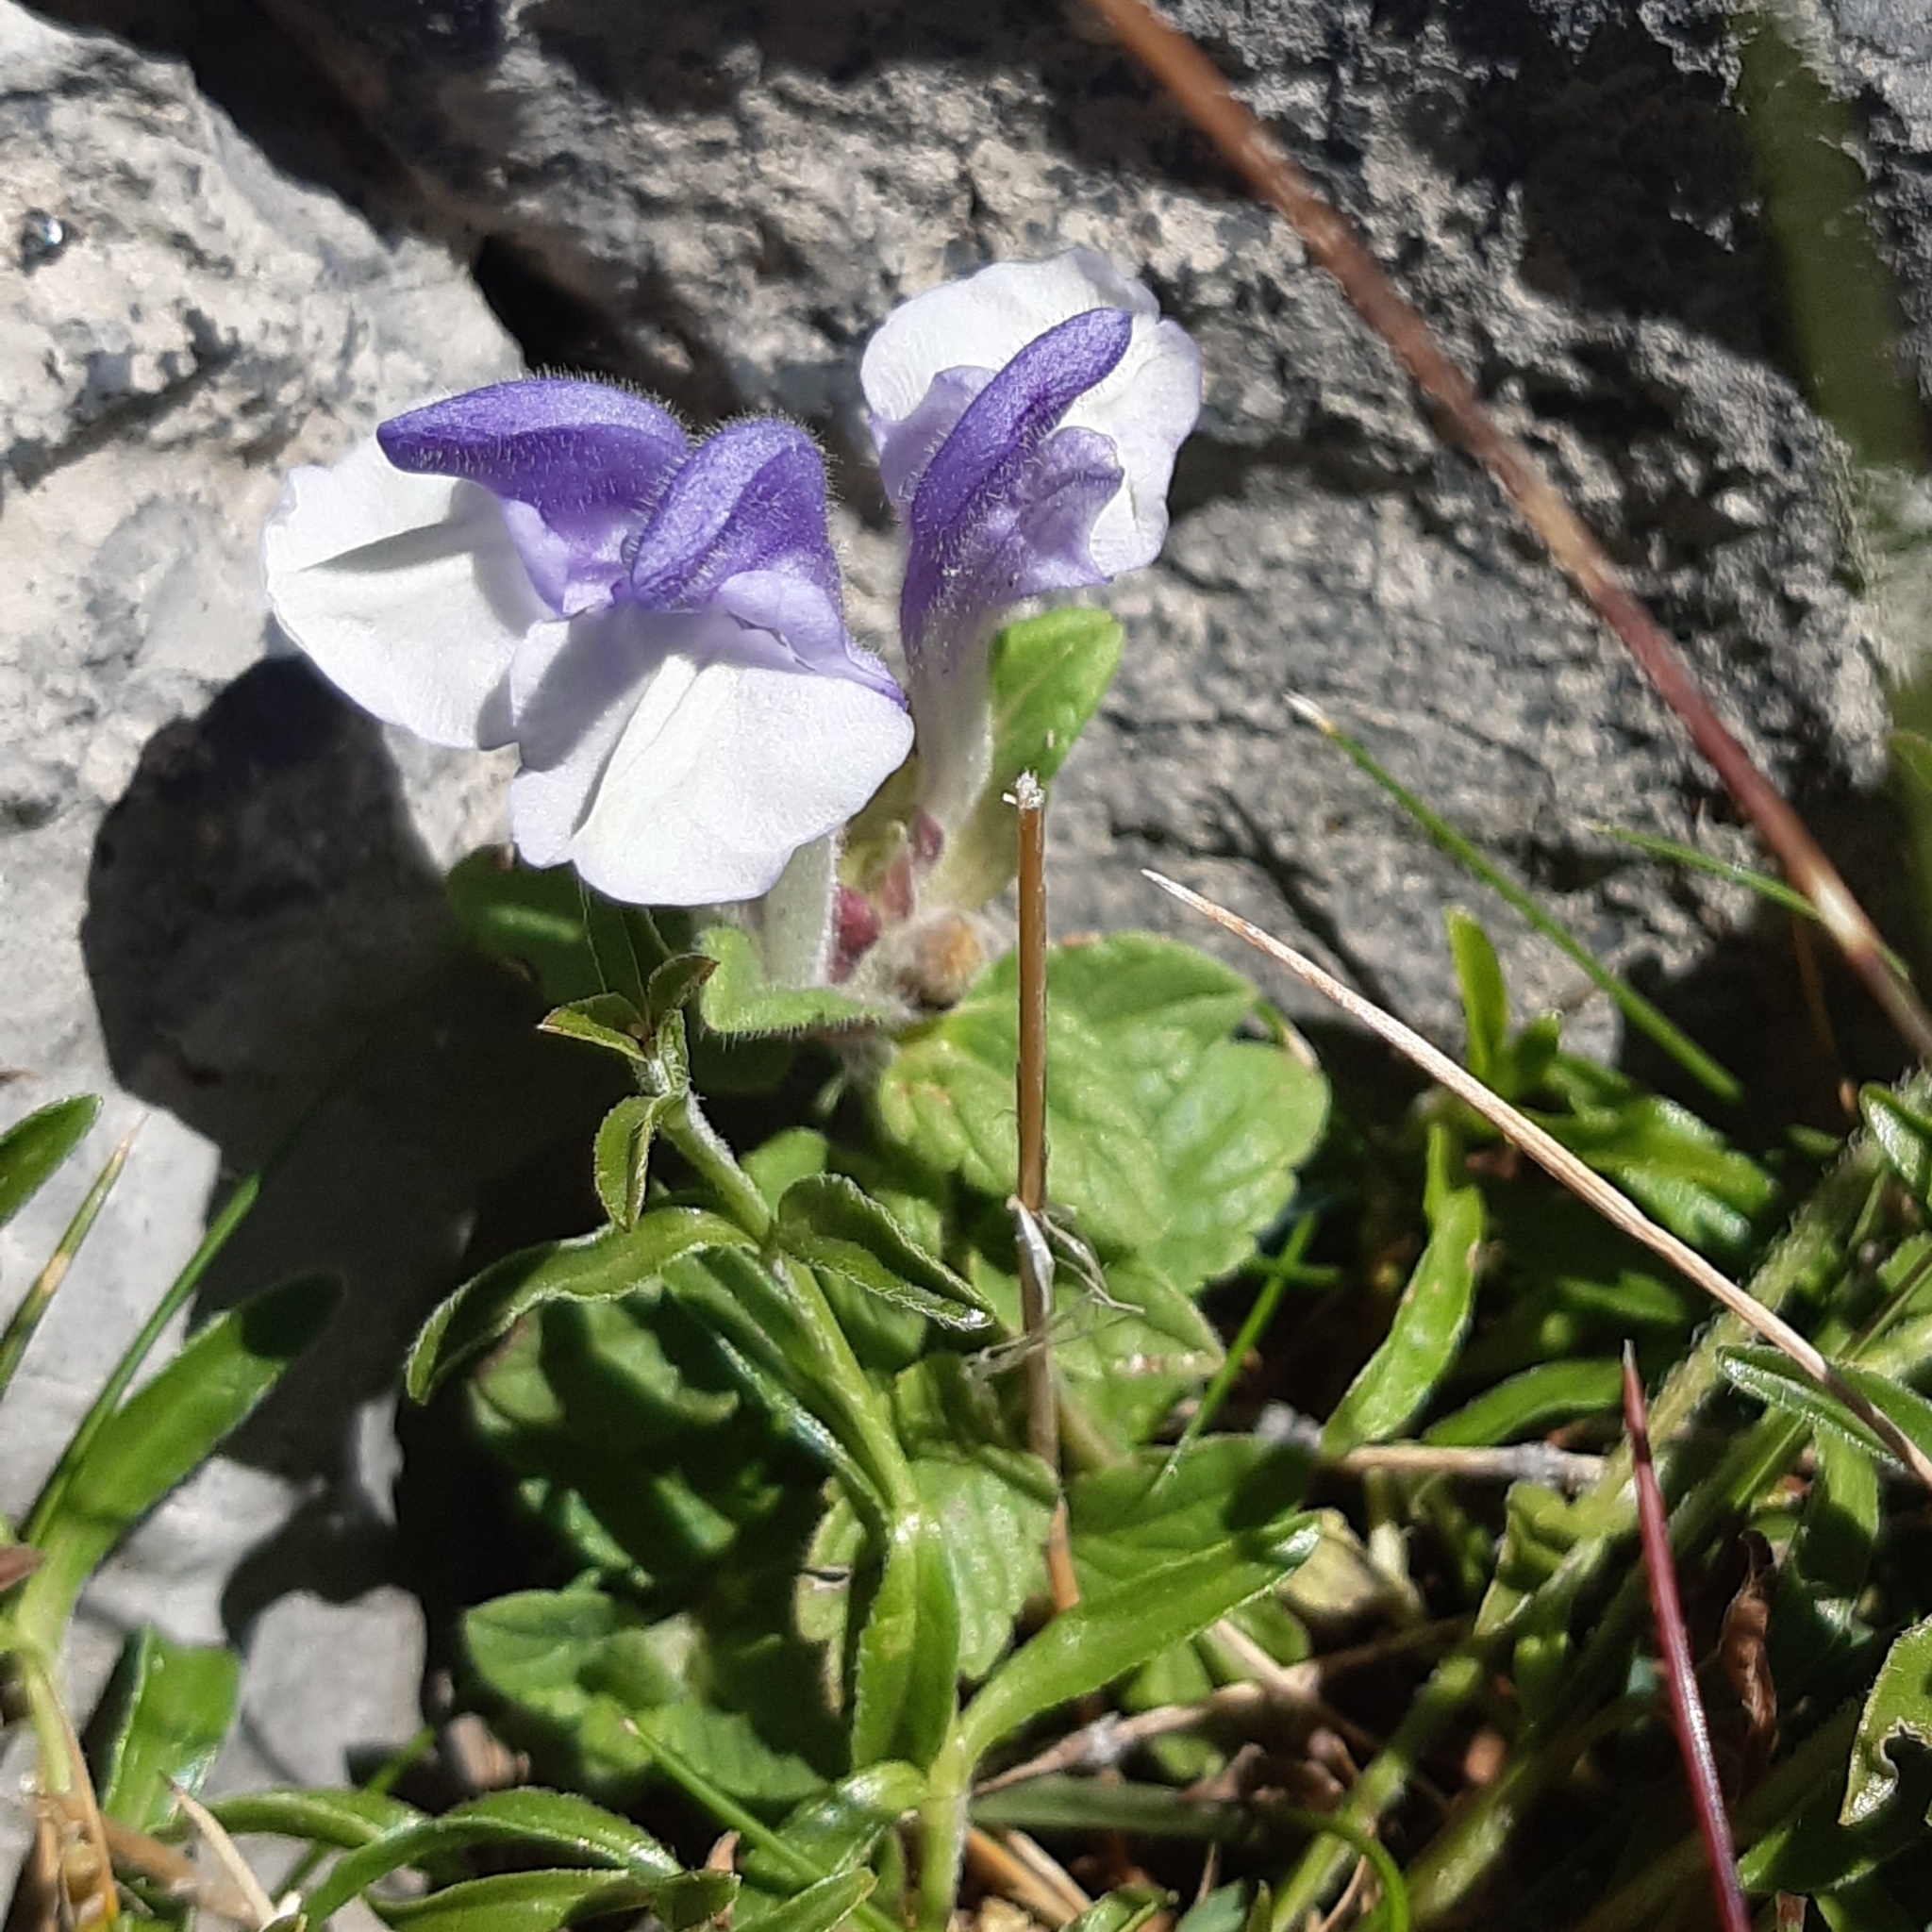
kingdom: Plantae
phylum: Tracheophyta
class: Magnoliopsida
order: Lamiales
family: Lamiaceae
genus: Scutellaria
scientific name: Scutellaria alpina
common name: Alpine scullcap
